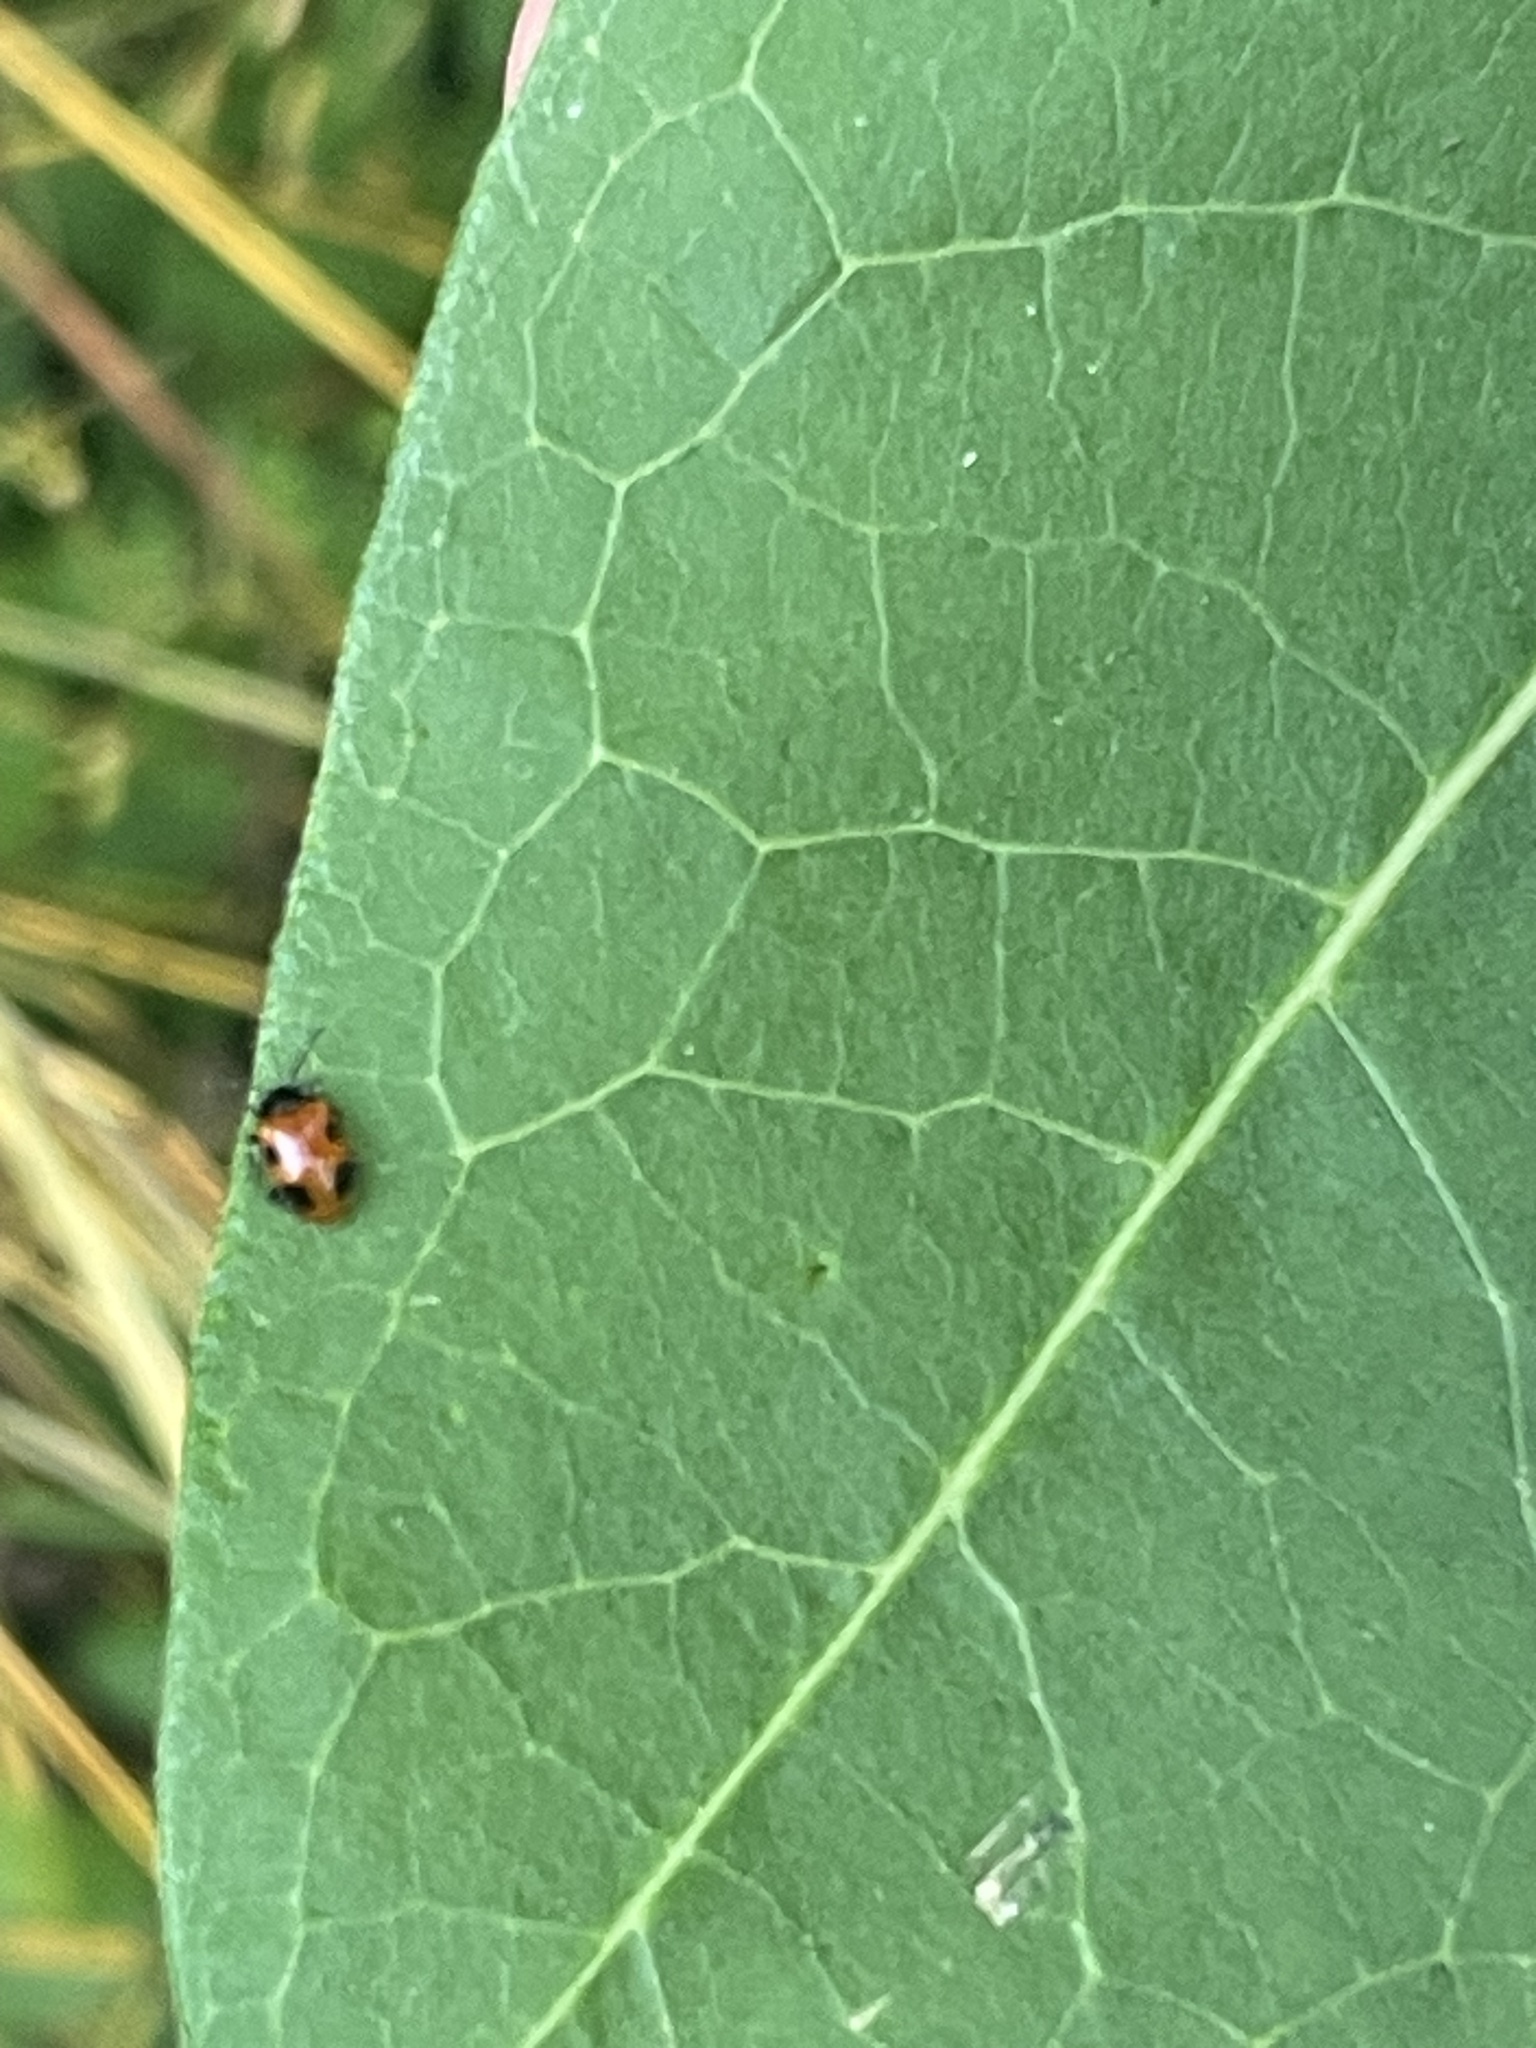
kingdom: Animalia
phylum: Arthropoda
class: Insecta
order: Coleoptera
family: Endomychidae
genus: Endomychus
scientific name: Endomychus biguttatus
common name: Handsome fungus beetle
